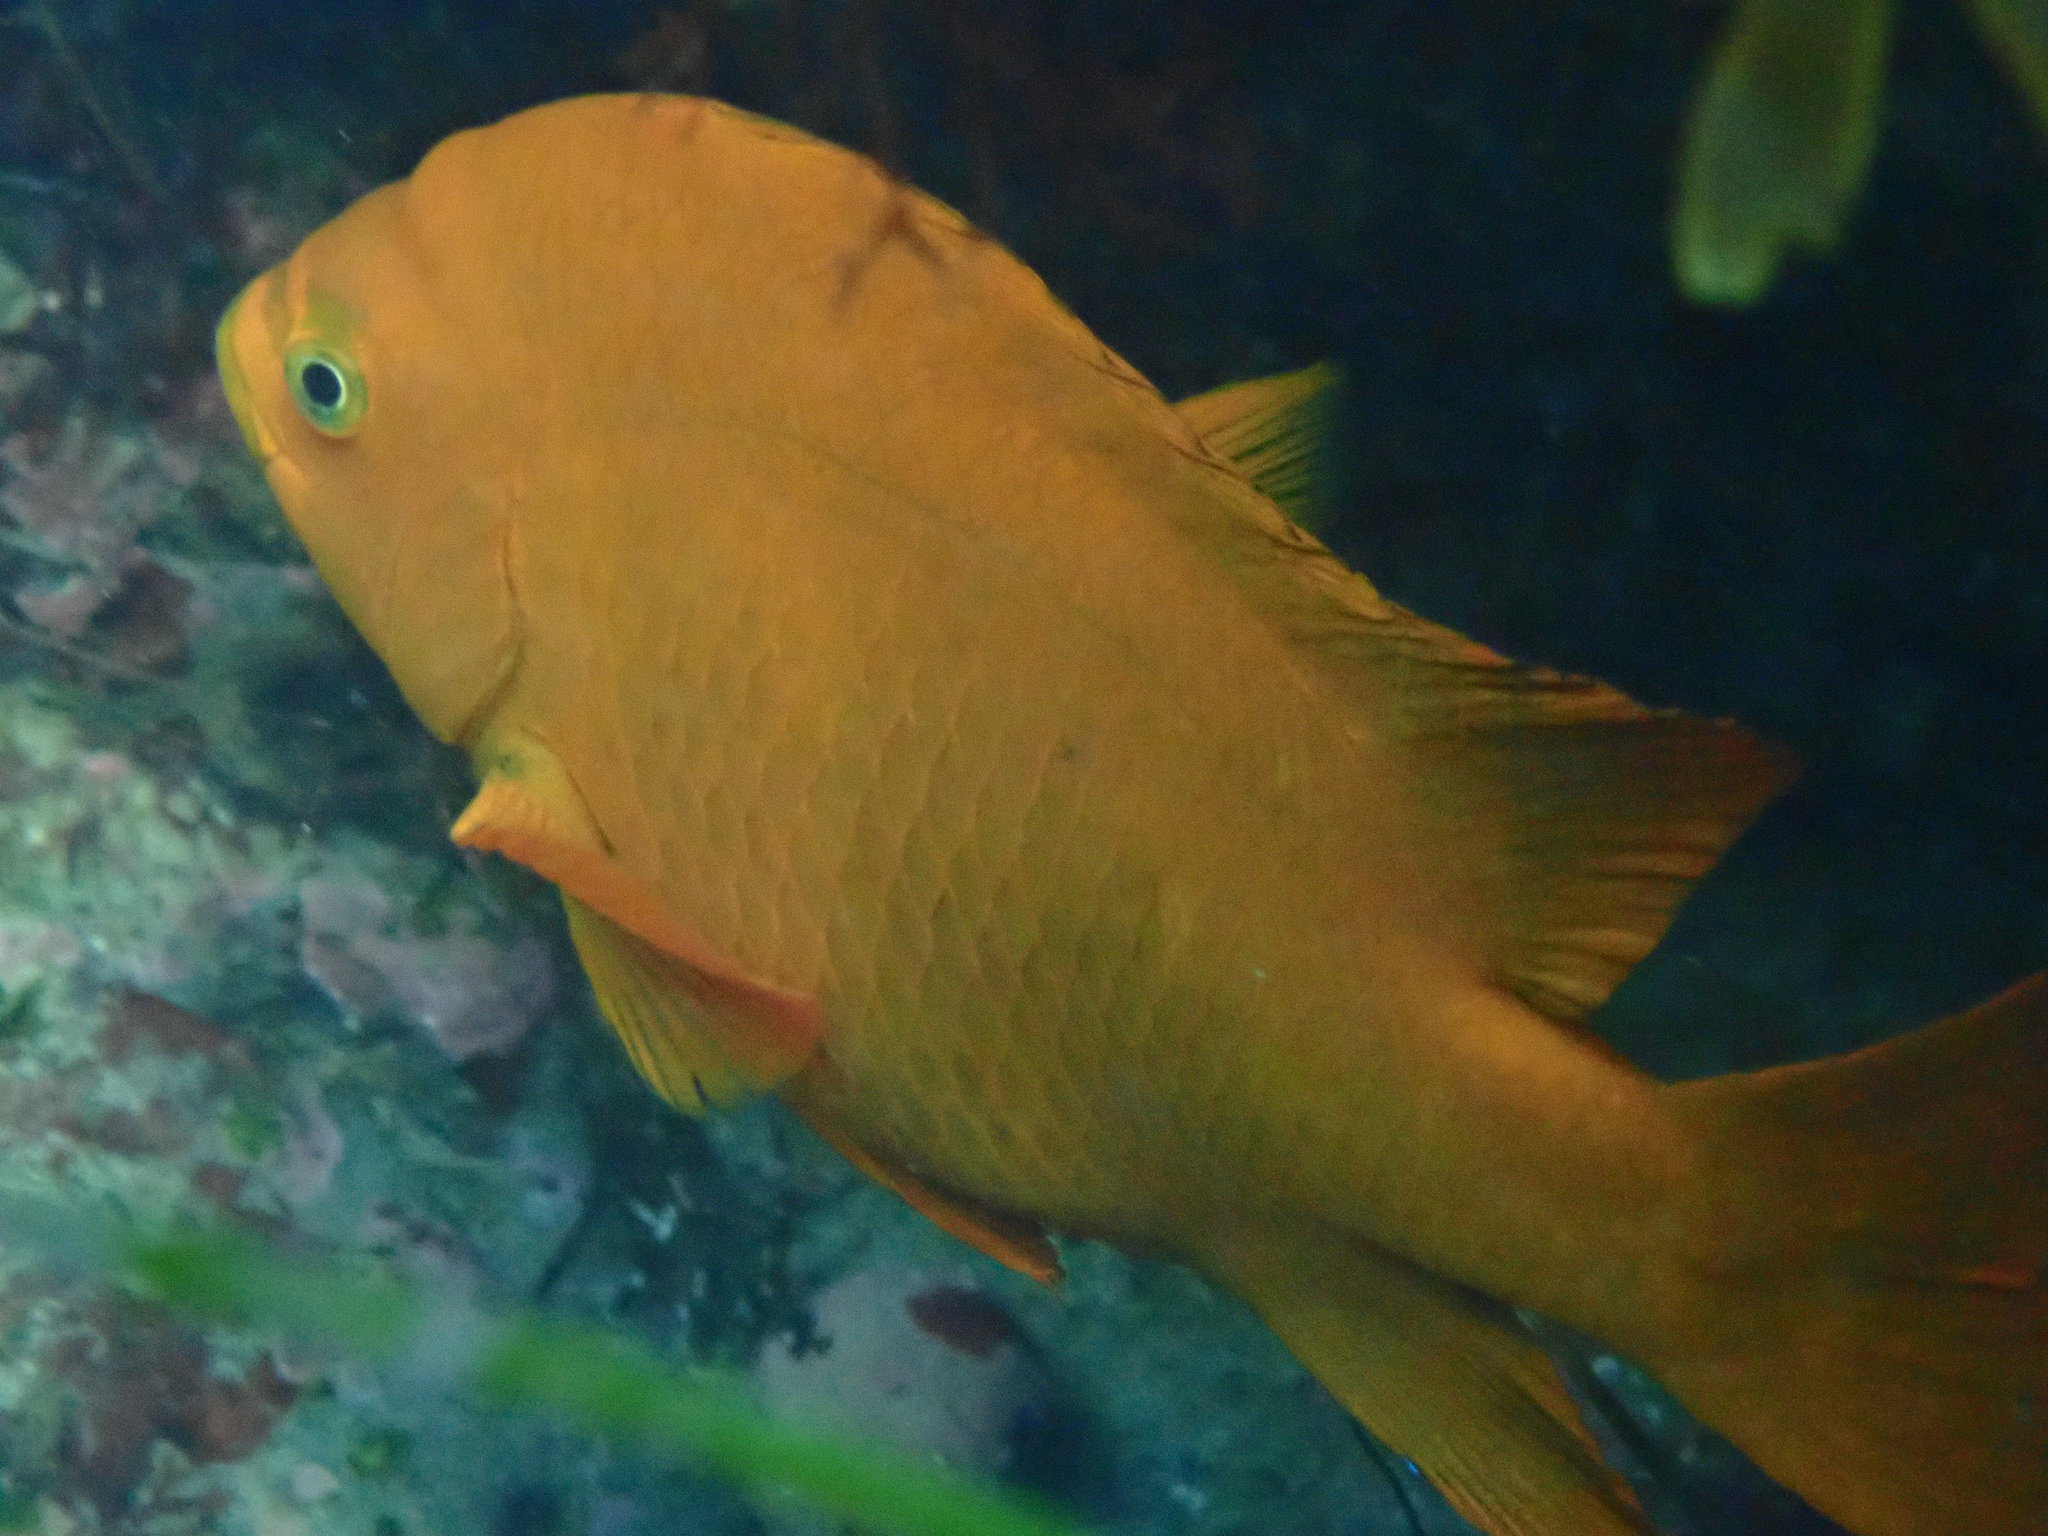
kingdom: Animalia
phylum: Chordata
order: Perciformes
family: Pomacentridae
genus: Hypsypops
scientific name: Hypsypops rubicundus
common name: Garibaldi
